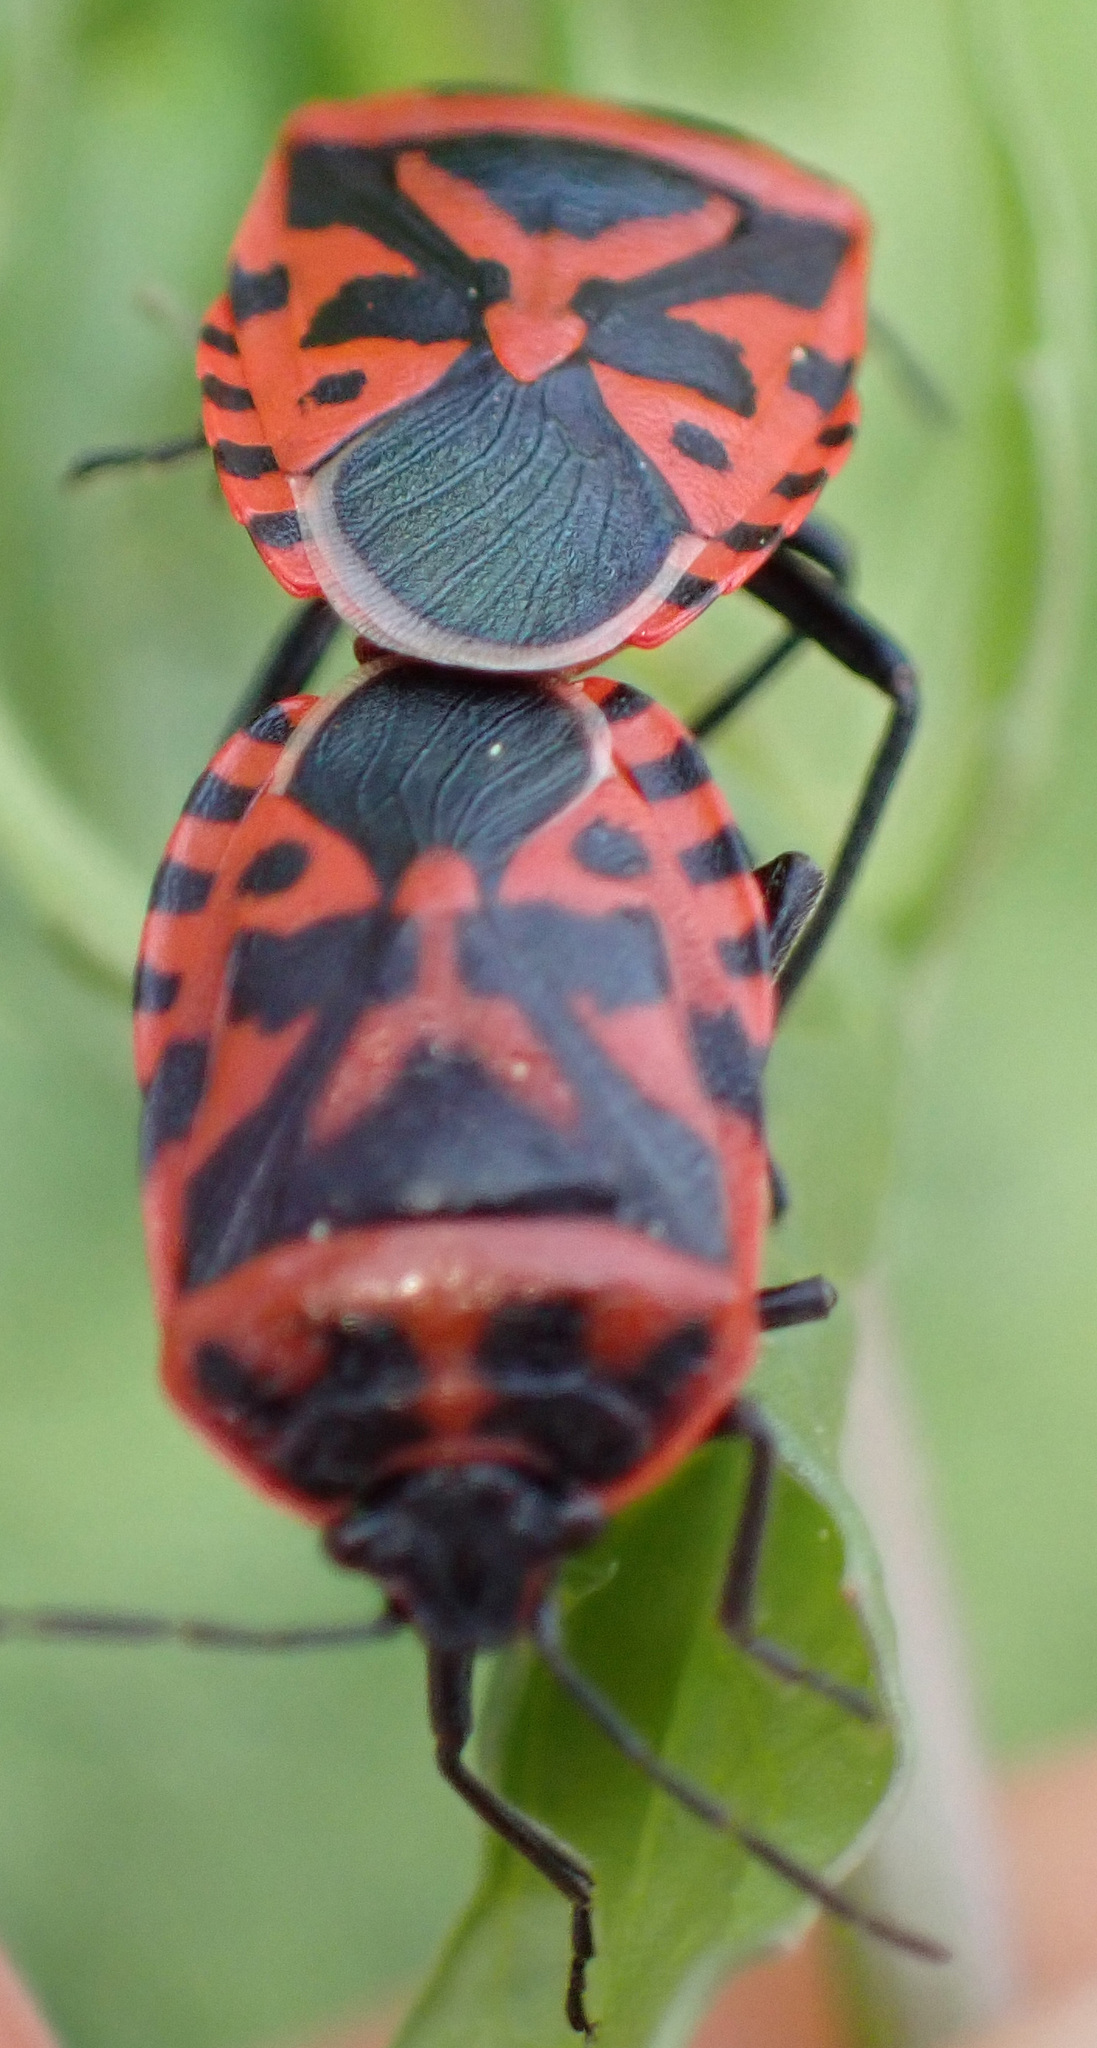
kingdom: Animalia
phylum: Arthropoda
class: Insecta
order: Hemiptera
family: Pentatomidae
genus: Eurydema
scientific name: Eurydema ventralis
